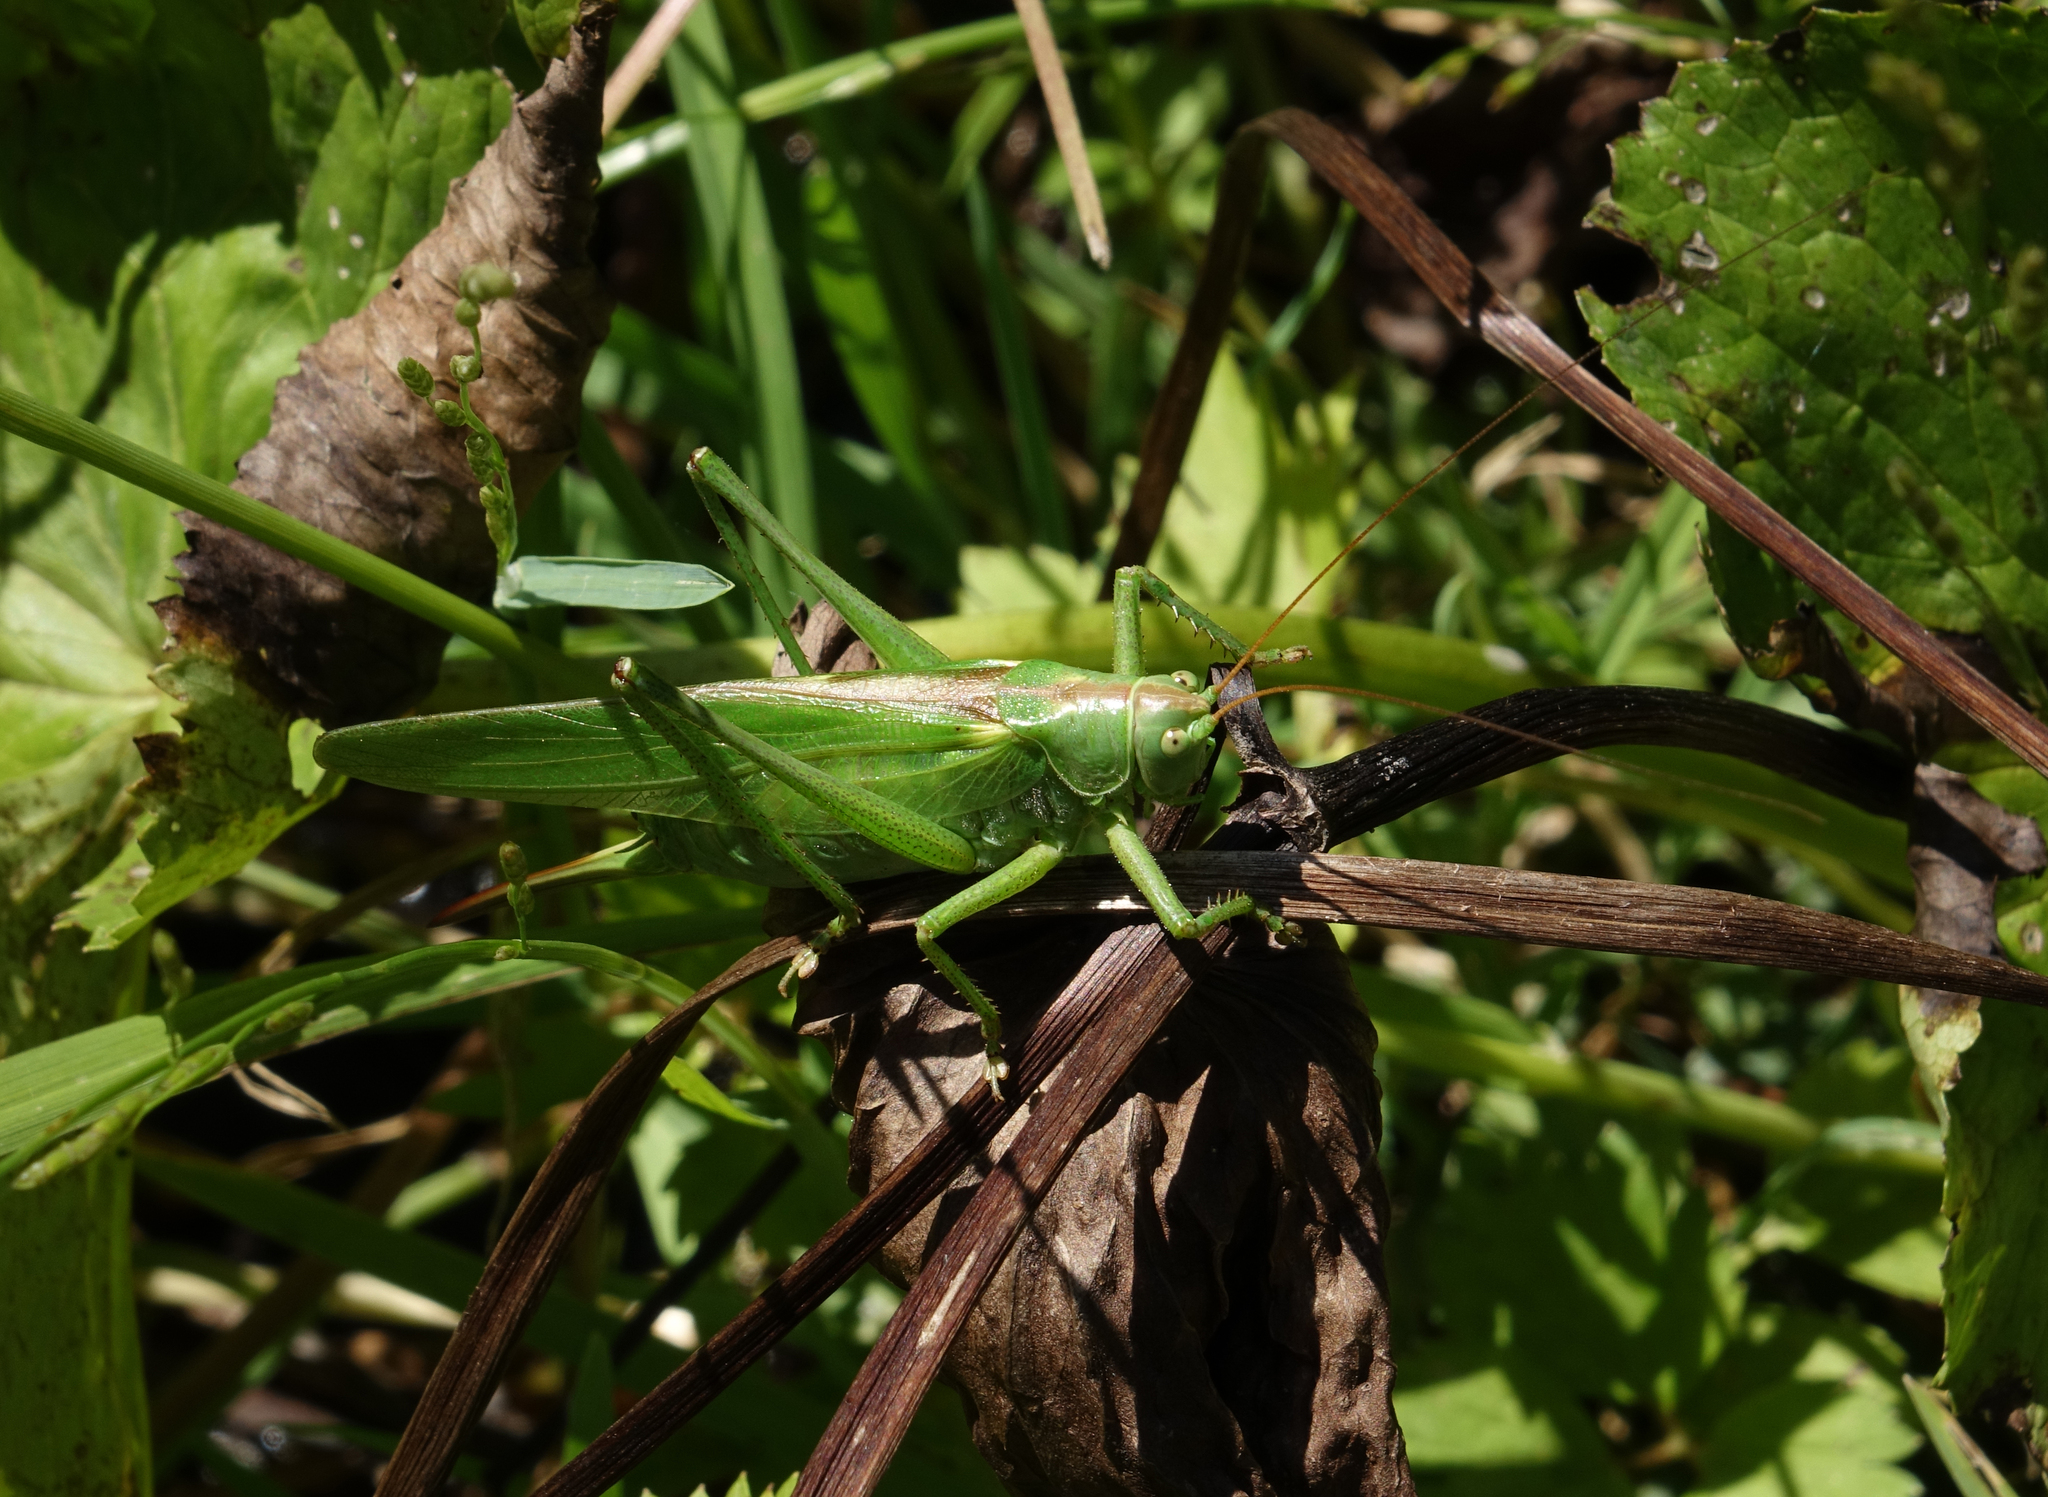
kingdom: Animalia
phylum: Arthropoda
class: Insecta
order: Orthoptera
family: Tettigoniidae
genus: Tettigonia
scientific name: Tettigonia viridissima
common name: Great green bush-cricket
